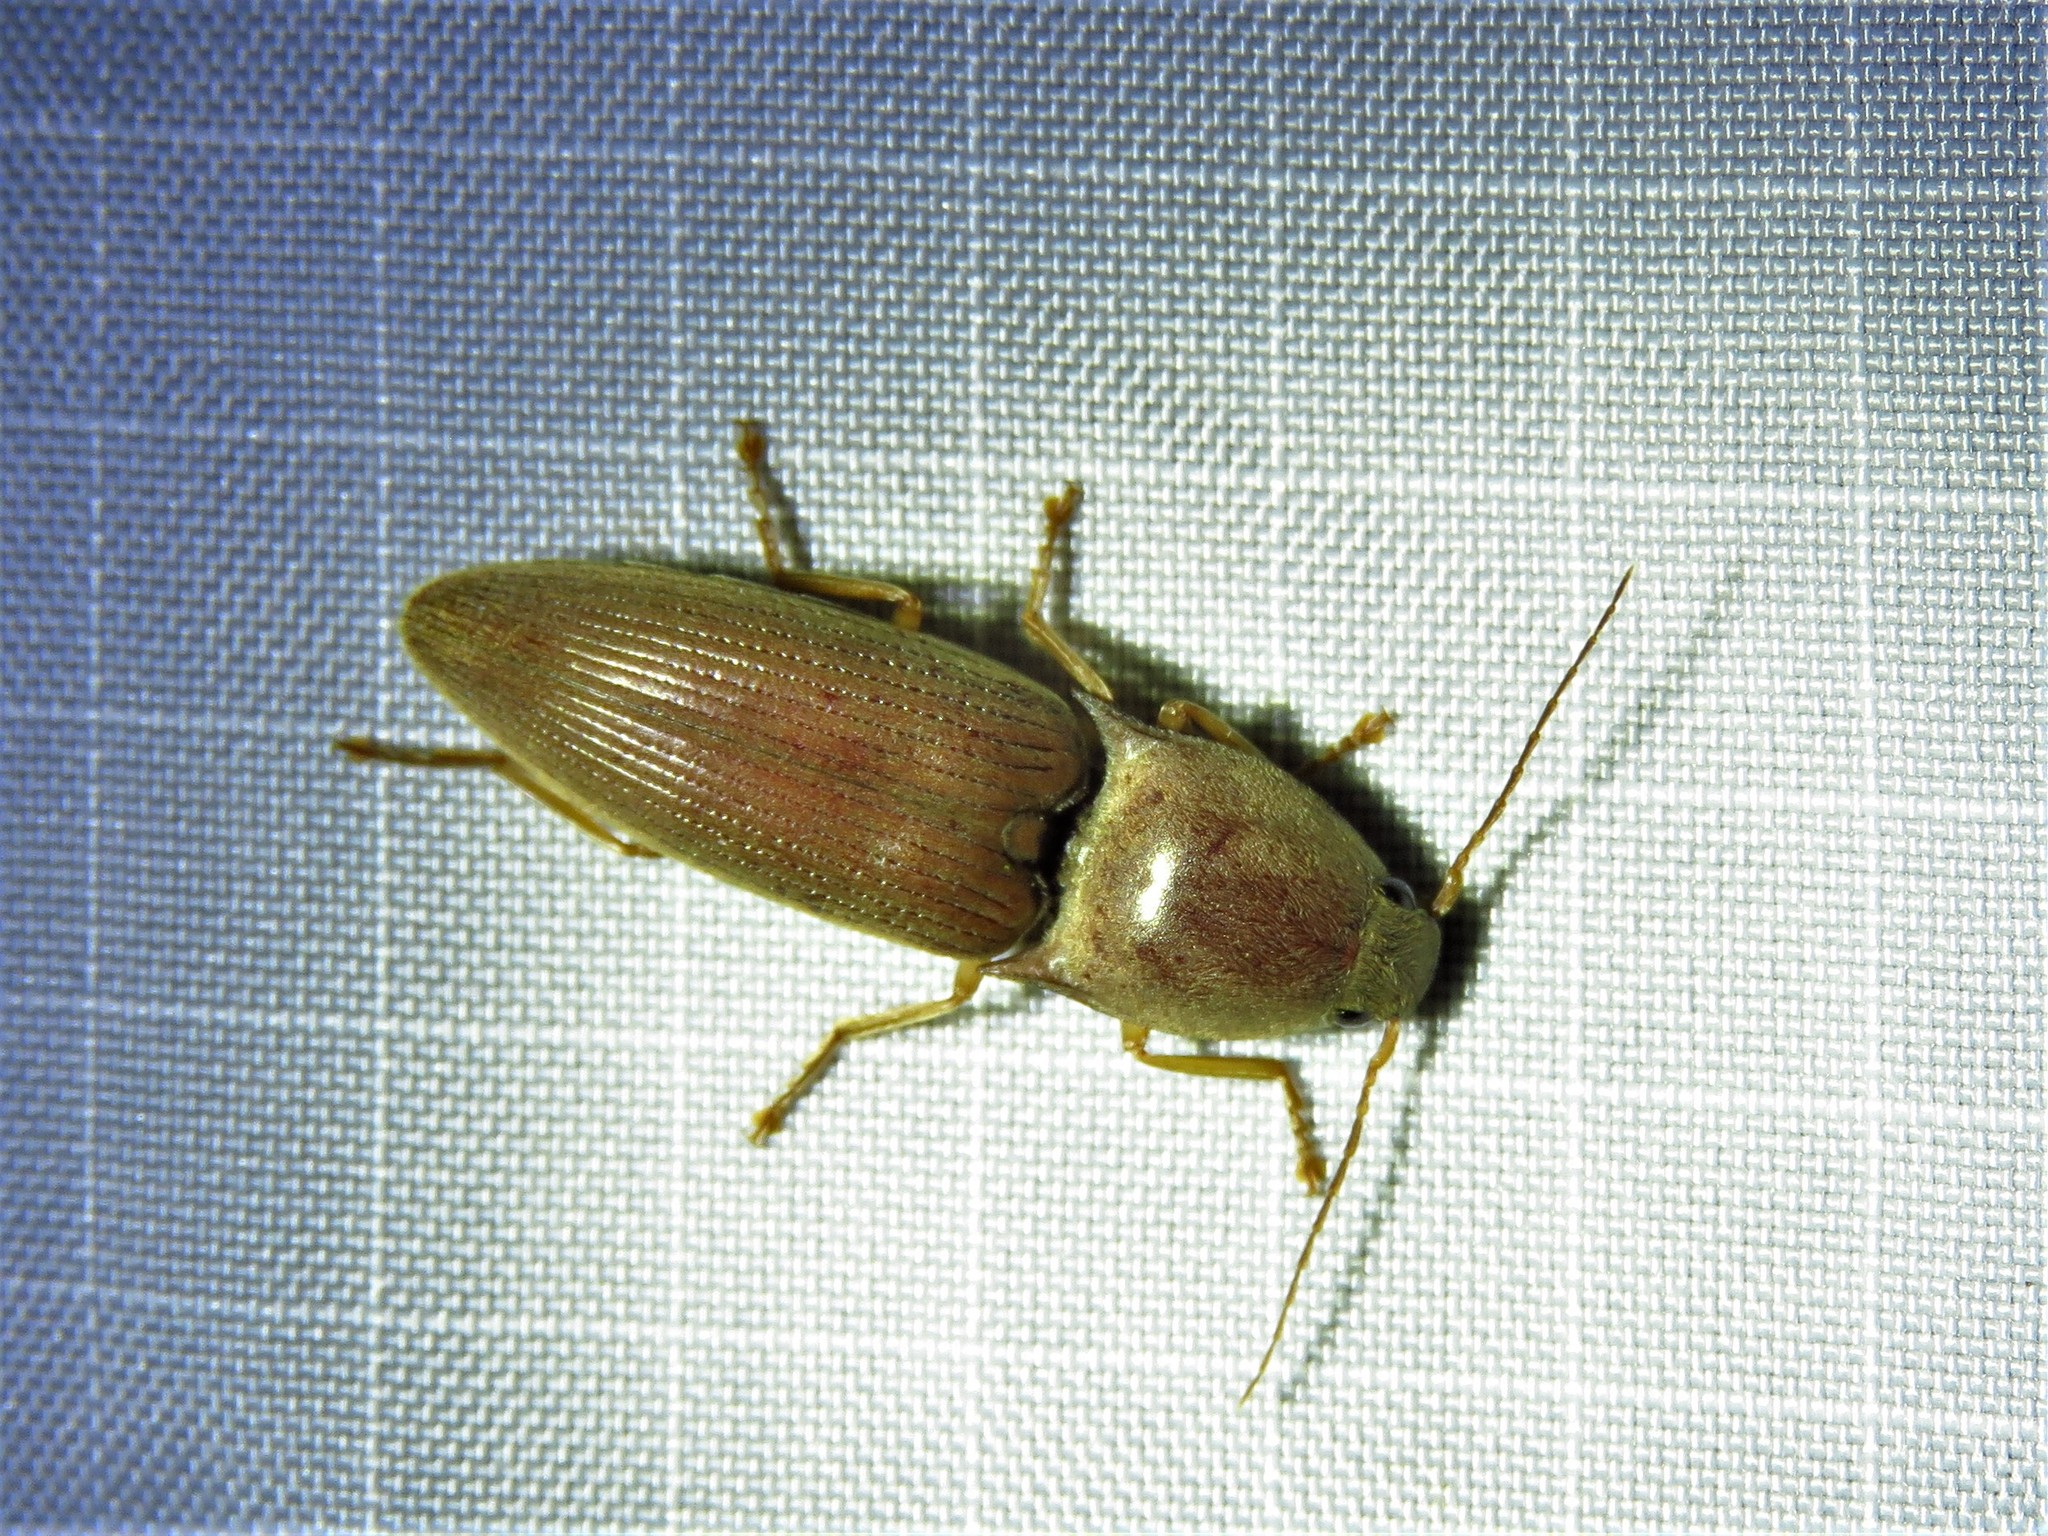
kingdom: Animalia
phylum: Arthropoda
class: Insecta
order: Coleoptera
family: Elateridae
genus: Monocrepidius
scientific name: Monocrepidius lividus
